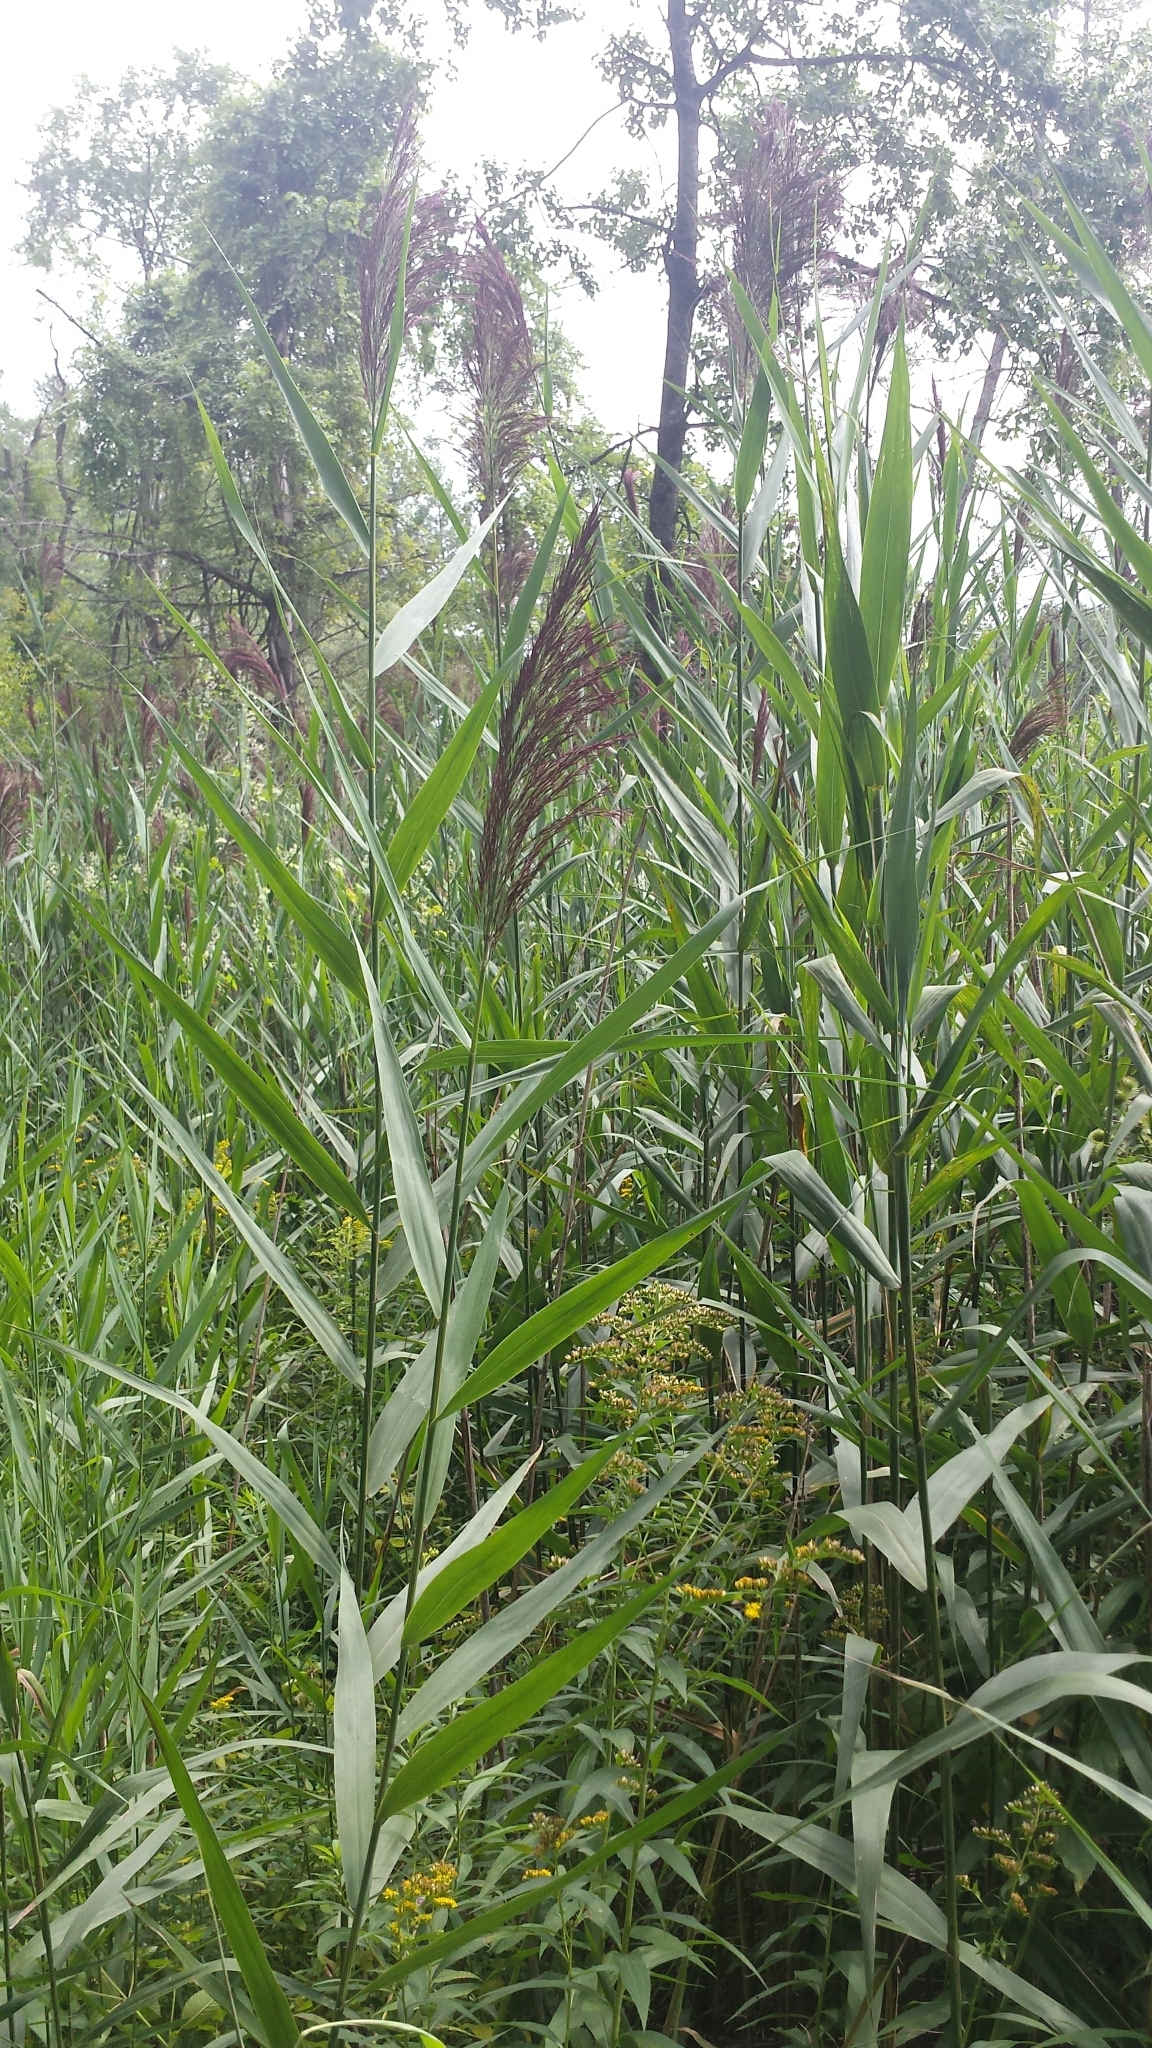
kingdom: Plantae
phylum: Tracheophyta
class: Liliopsida
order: Poales
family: Poaceae
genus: Phragmites
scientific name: Phragmites australis
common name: Common reed
